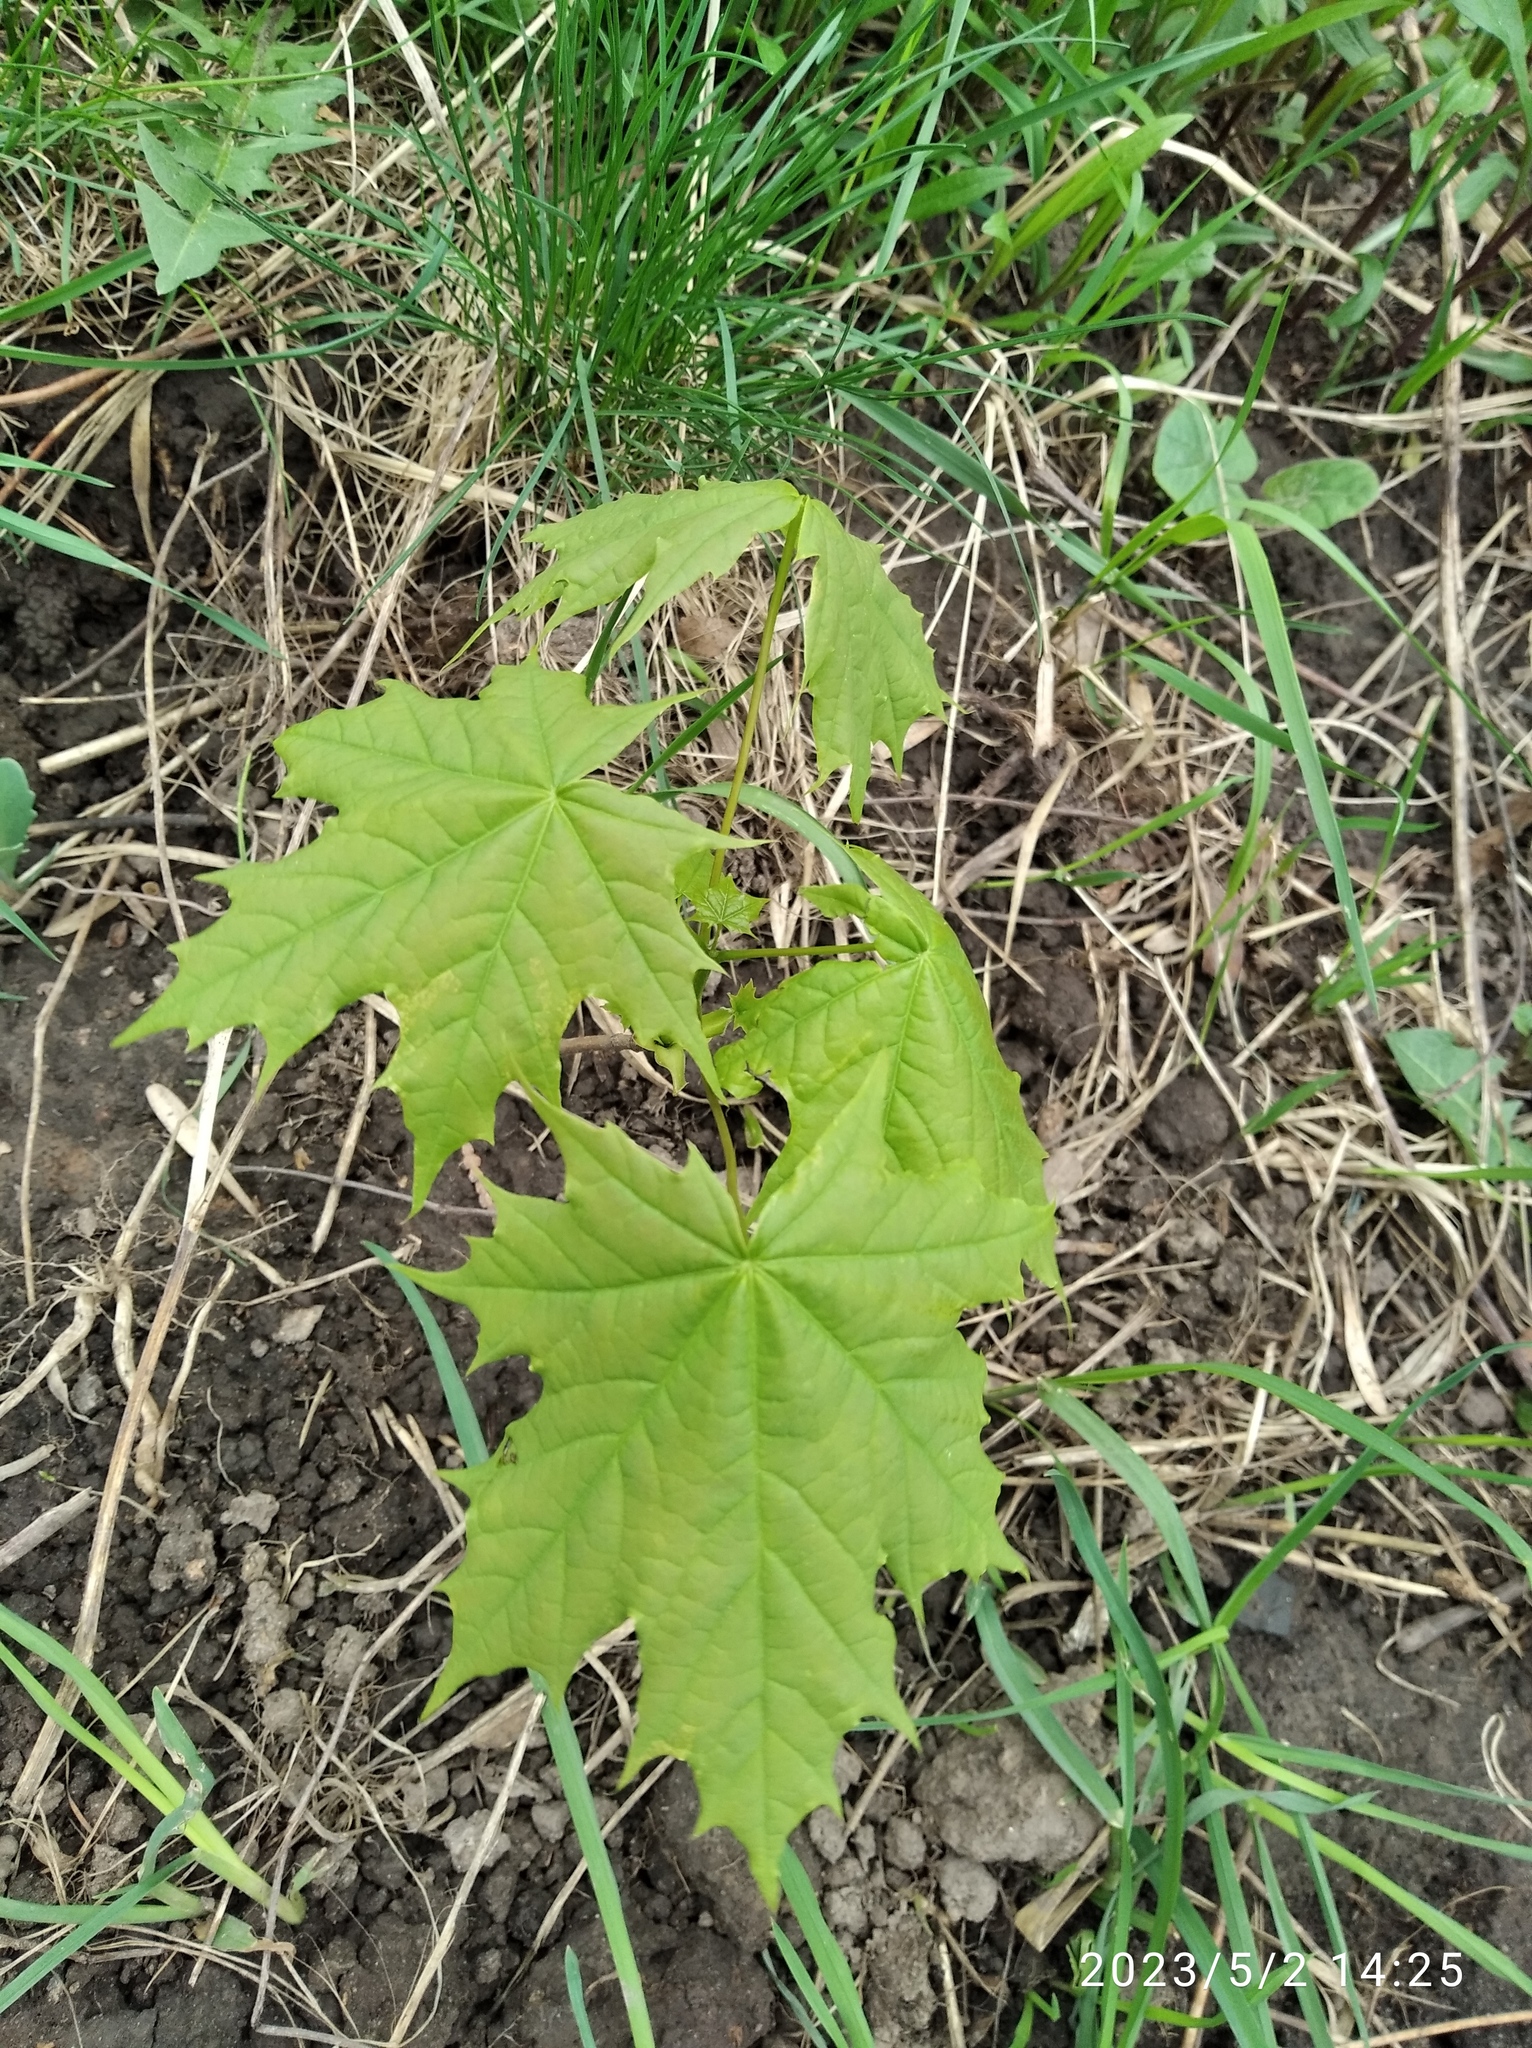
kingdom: Plantae
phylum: Tracheophyta
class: Magnoliopsida
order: Sapindales
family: Sapindaceae
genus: Acer
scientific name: Acer platanoides
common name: Norway maple
